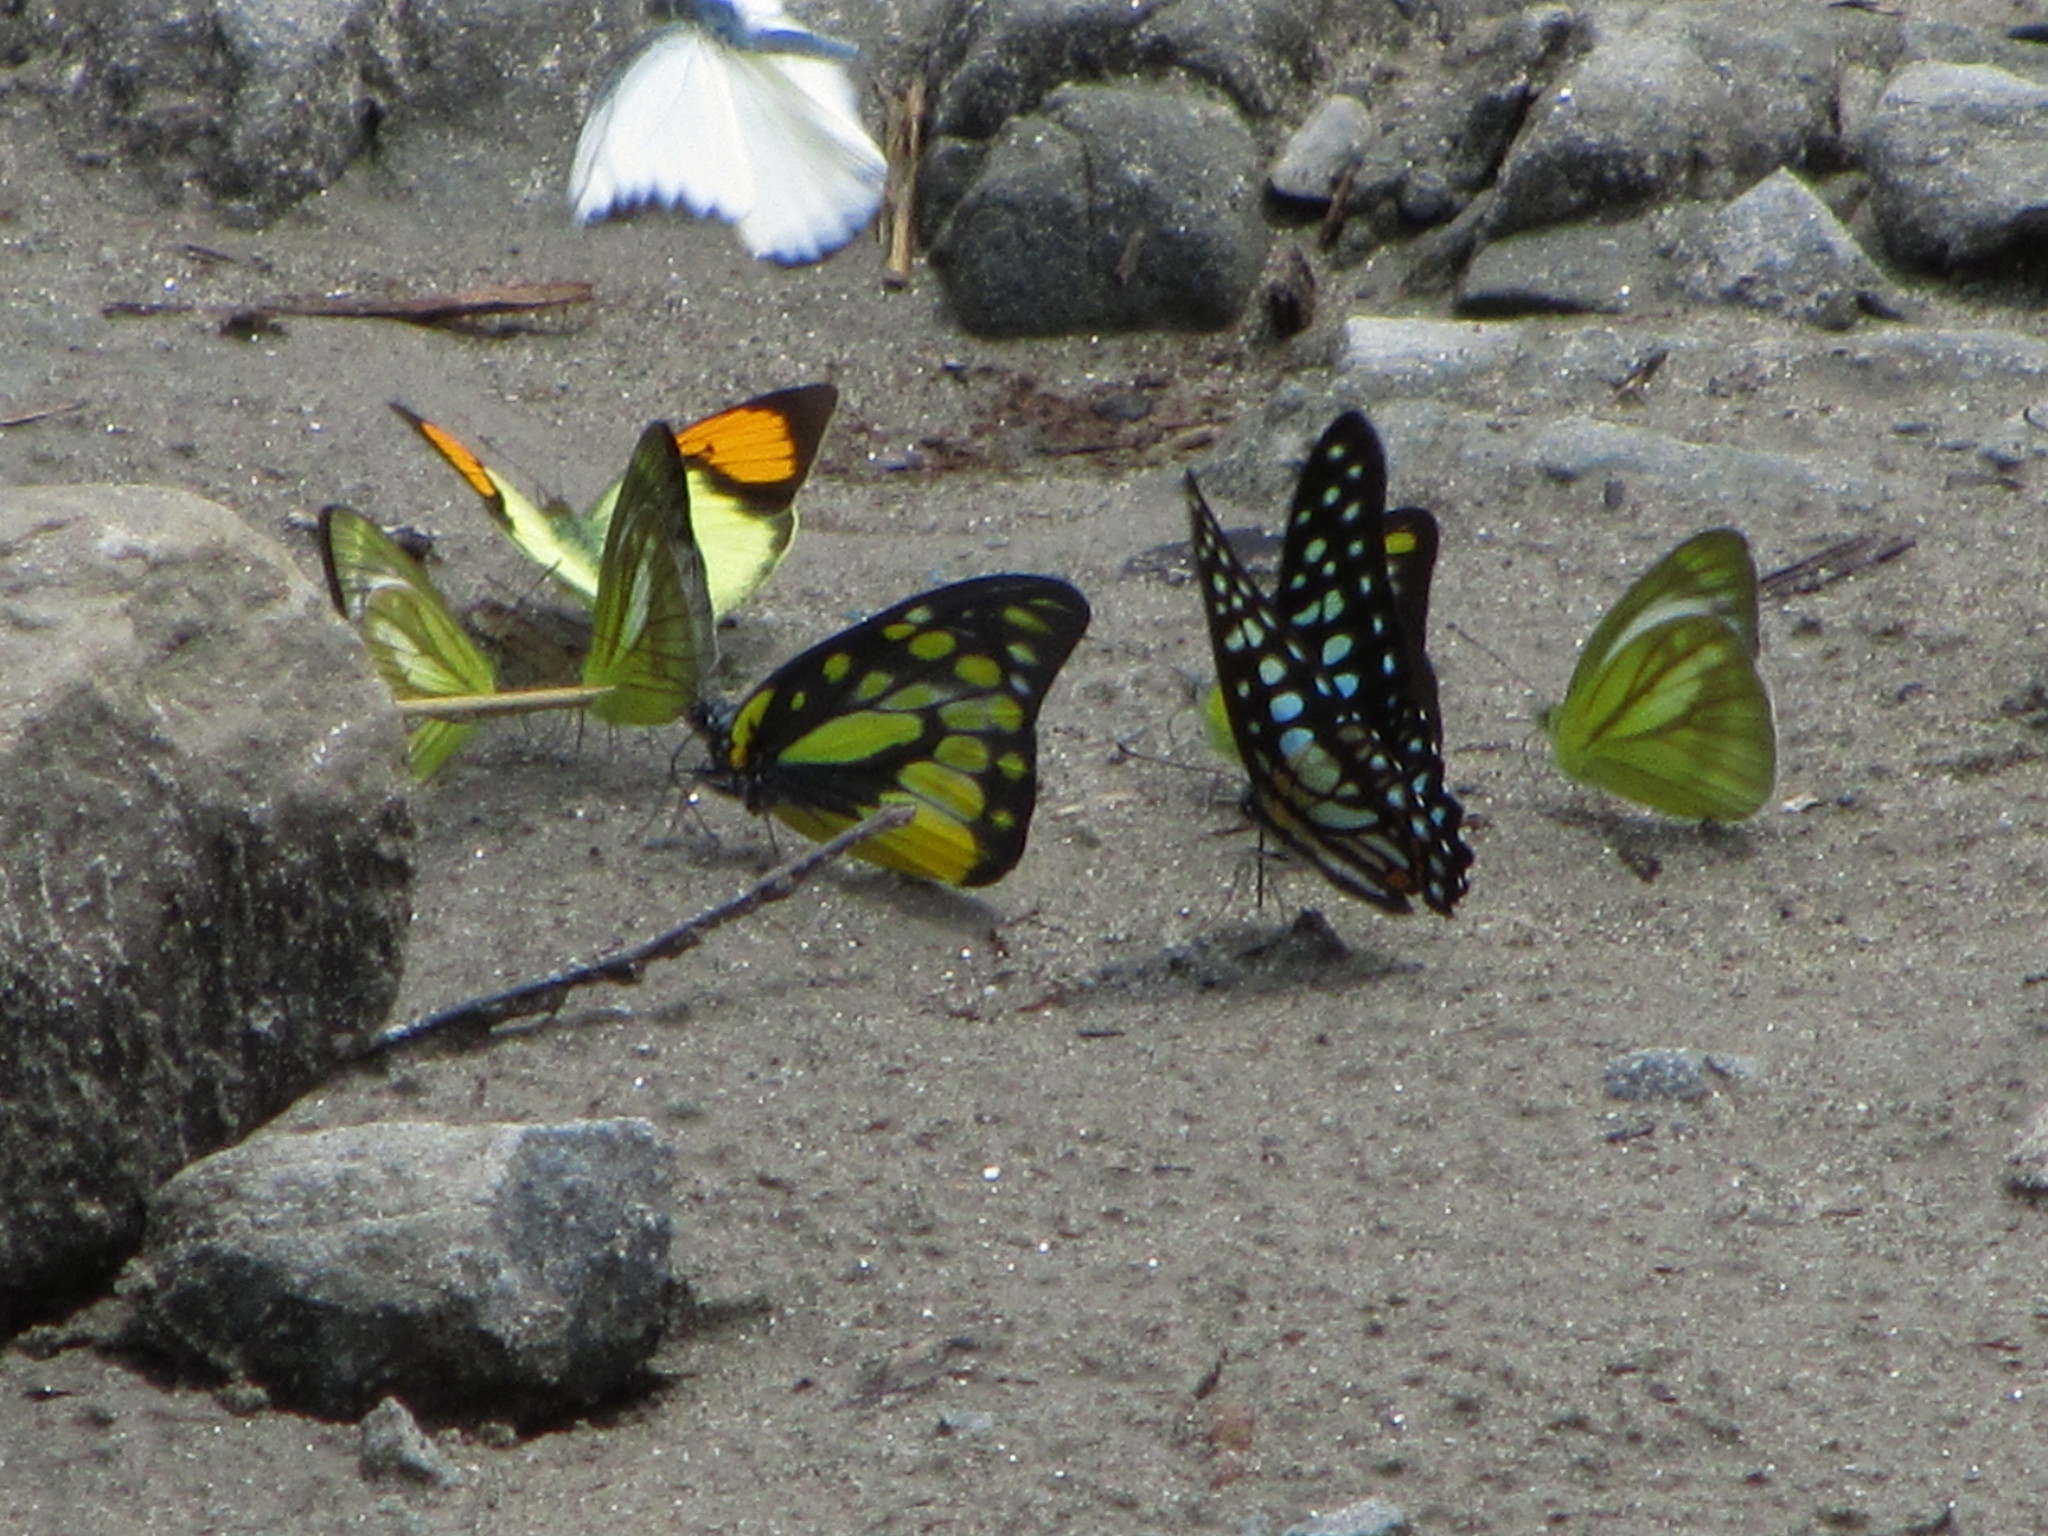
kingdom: Animalia
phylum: Arthropoda
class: Insecta
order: Lepidoptera
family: Papilionidae
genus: Graphium
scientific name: Graphium chironides
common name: Veined jay
